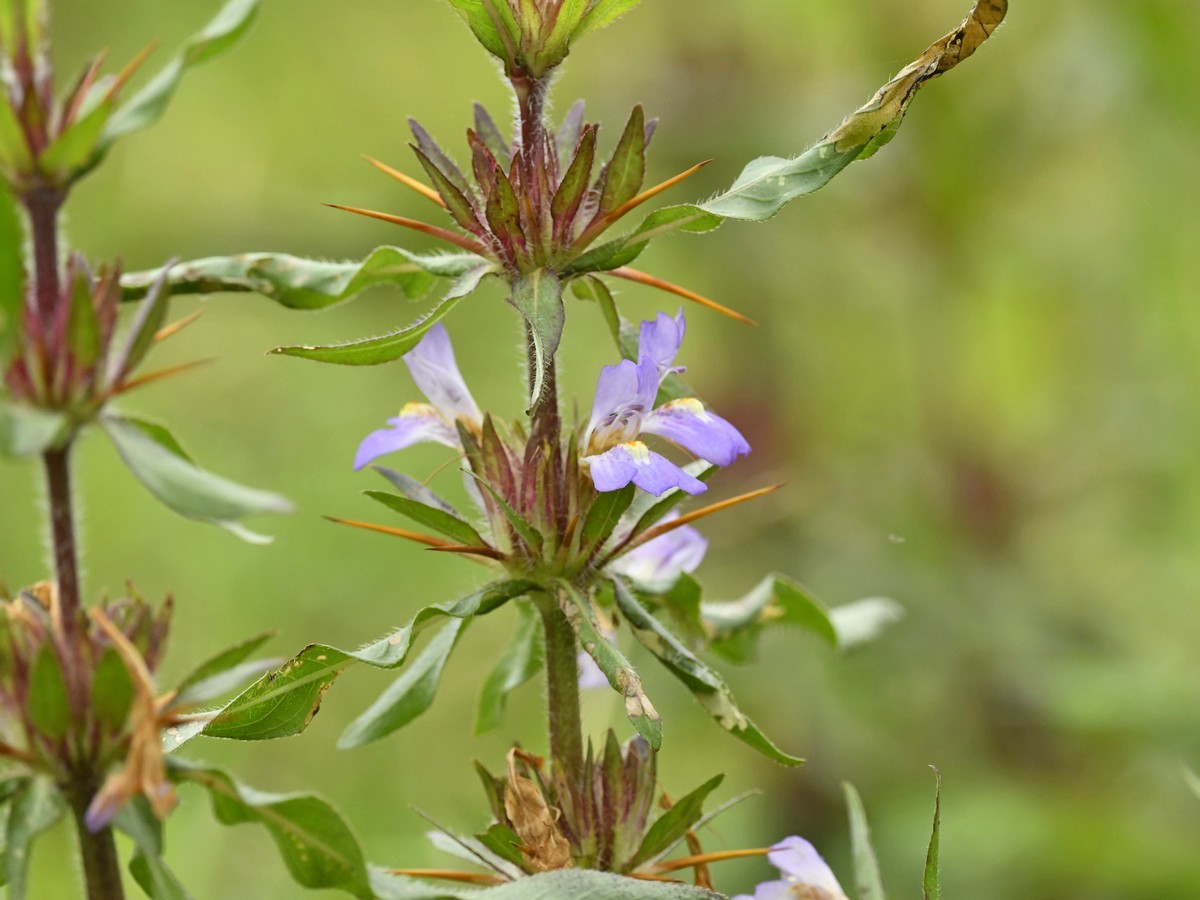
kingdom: Plantae
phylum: Tracheophyta
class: Magnoliopsida
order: Lamiales
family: Acanthaceae
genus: Hygrophila
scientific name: Hygrophila auriculata
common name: Hygrophila
